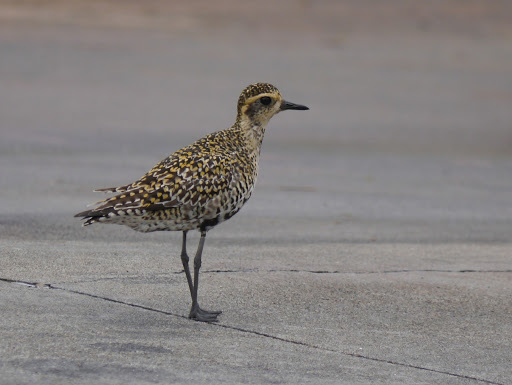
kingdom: Animalia
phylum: Chordata
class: Aves
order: Charadriiformes
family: Charadriidae
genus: Pluvialis
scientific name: Pluvialis fulva
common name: Pacific golden plover
